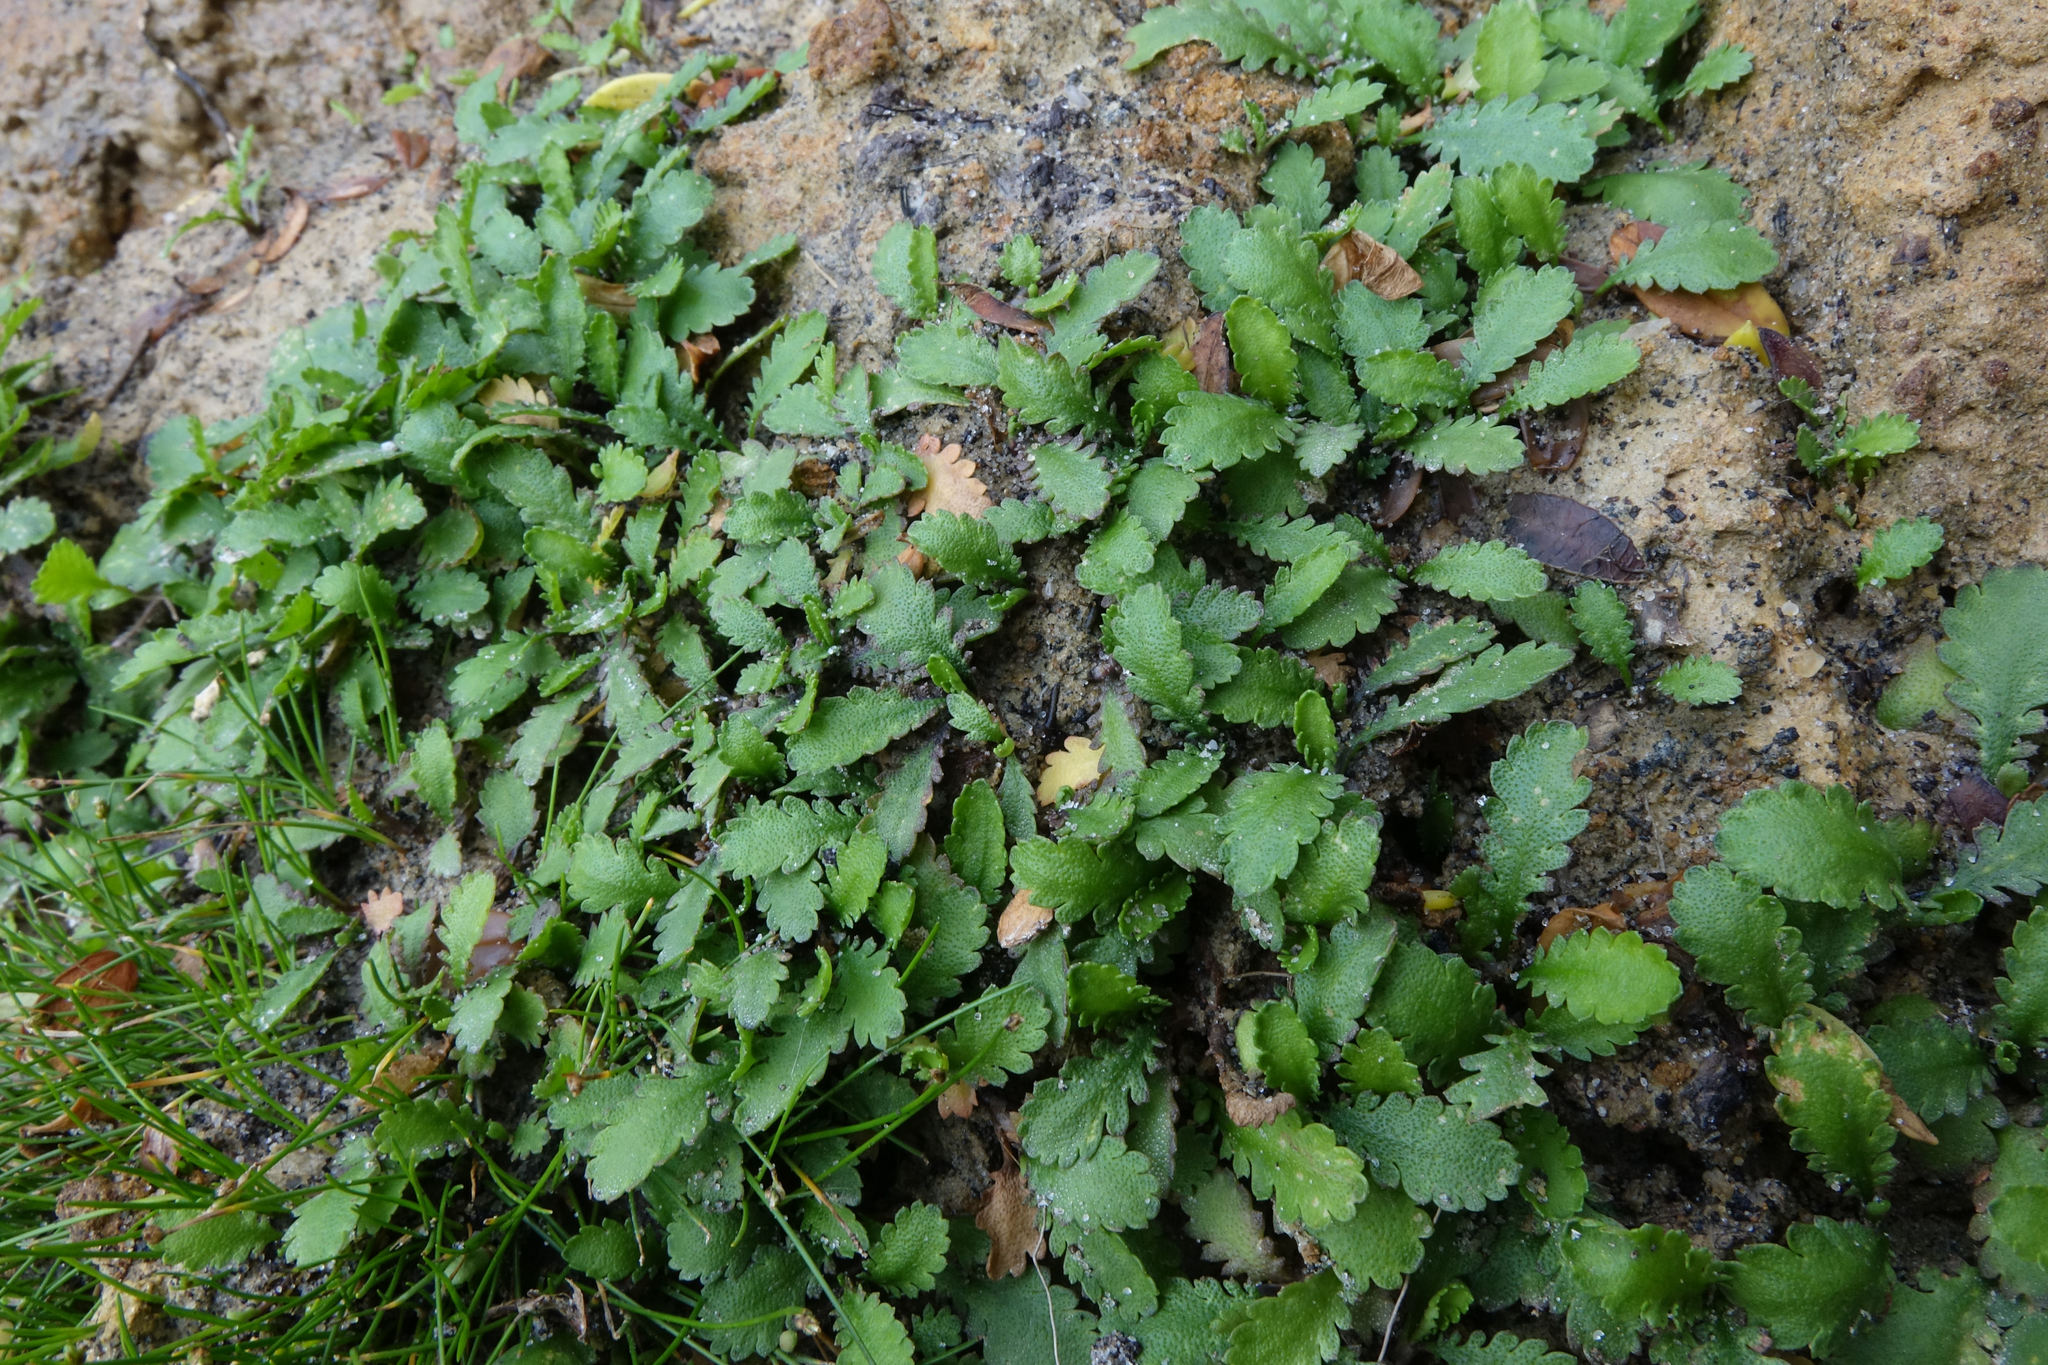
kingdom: Plantae
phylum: Tracheophyta
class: Magnoliopsida
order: Asterales
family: Asteraceae
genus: Leptinella
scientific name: Leptinella dioica
